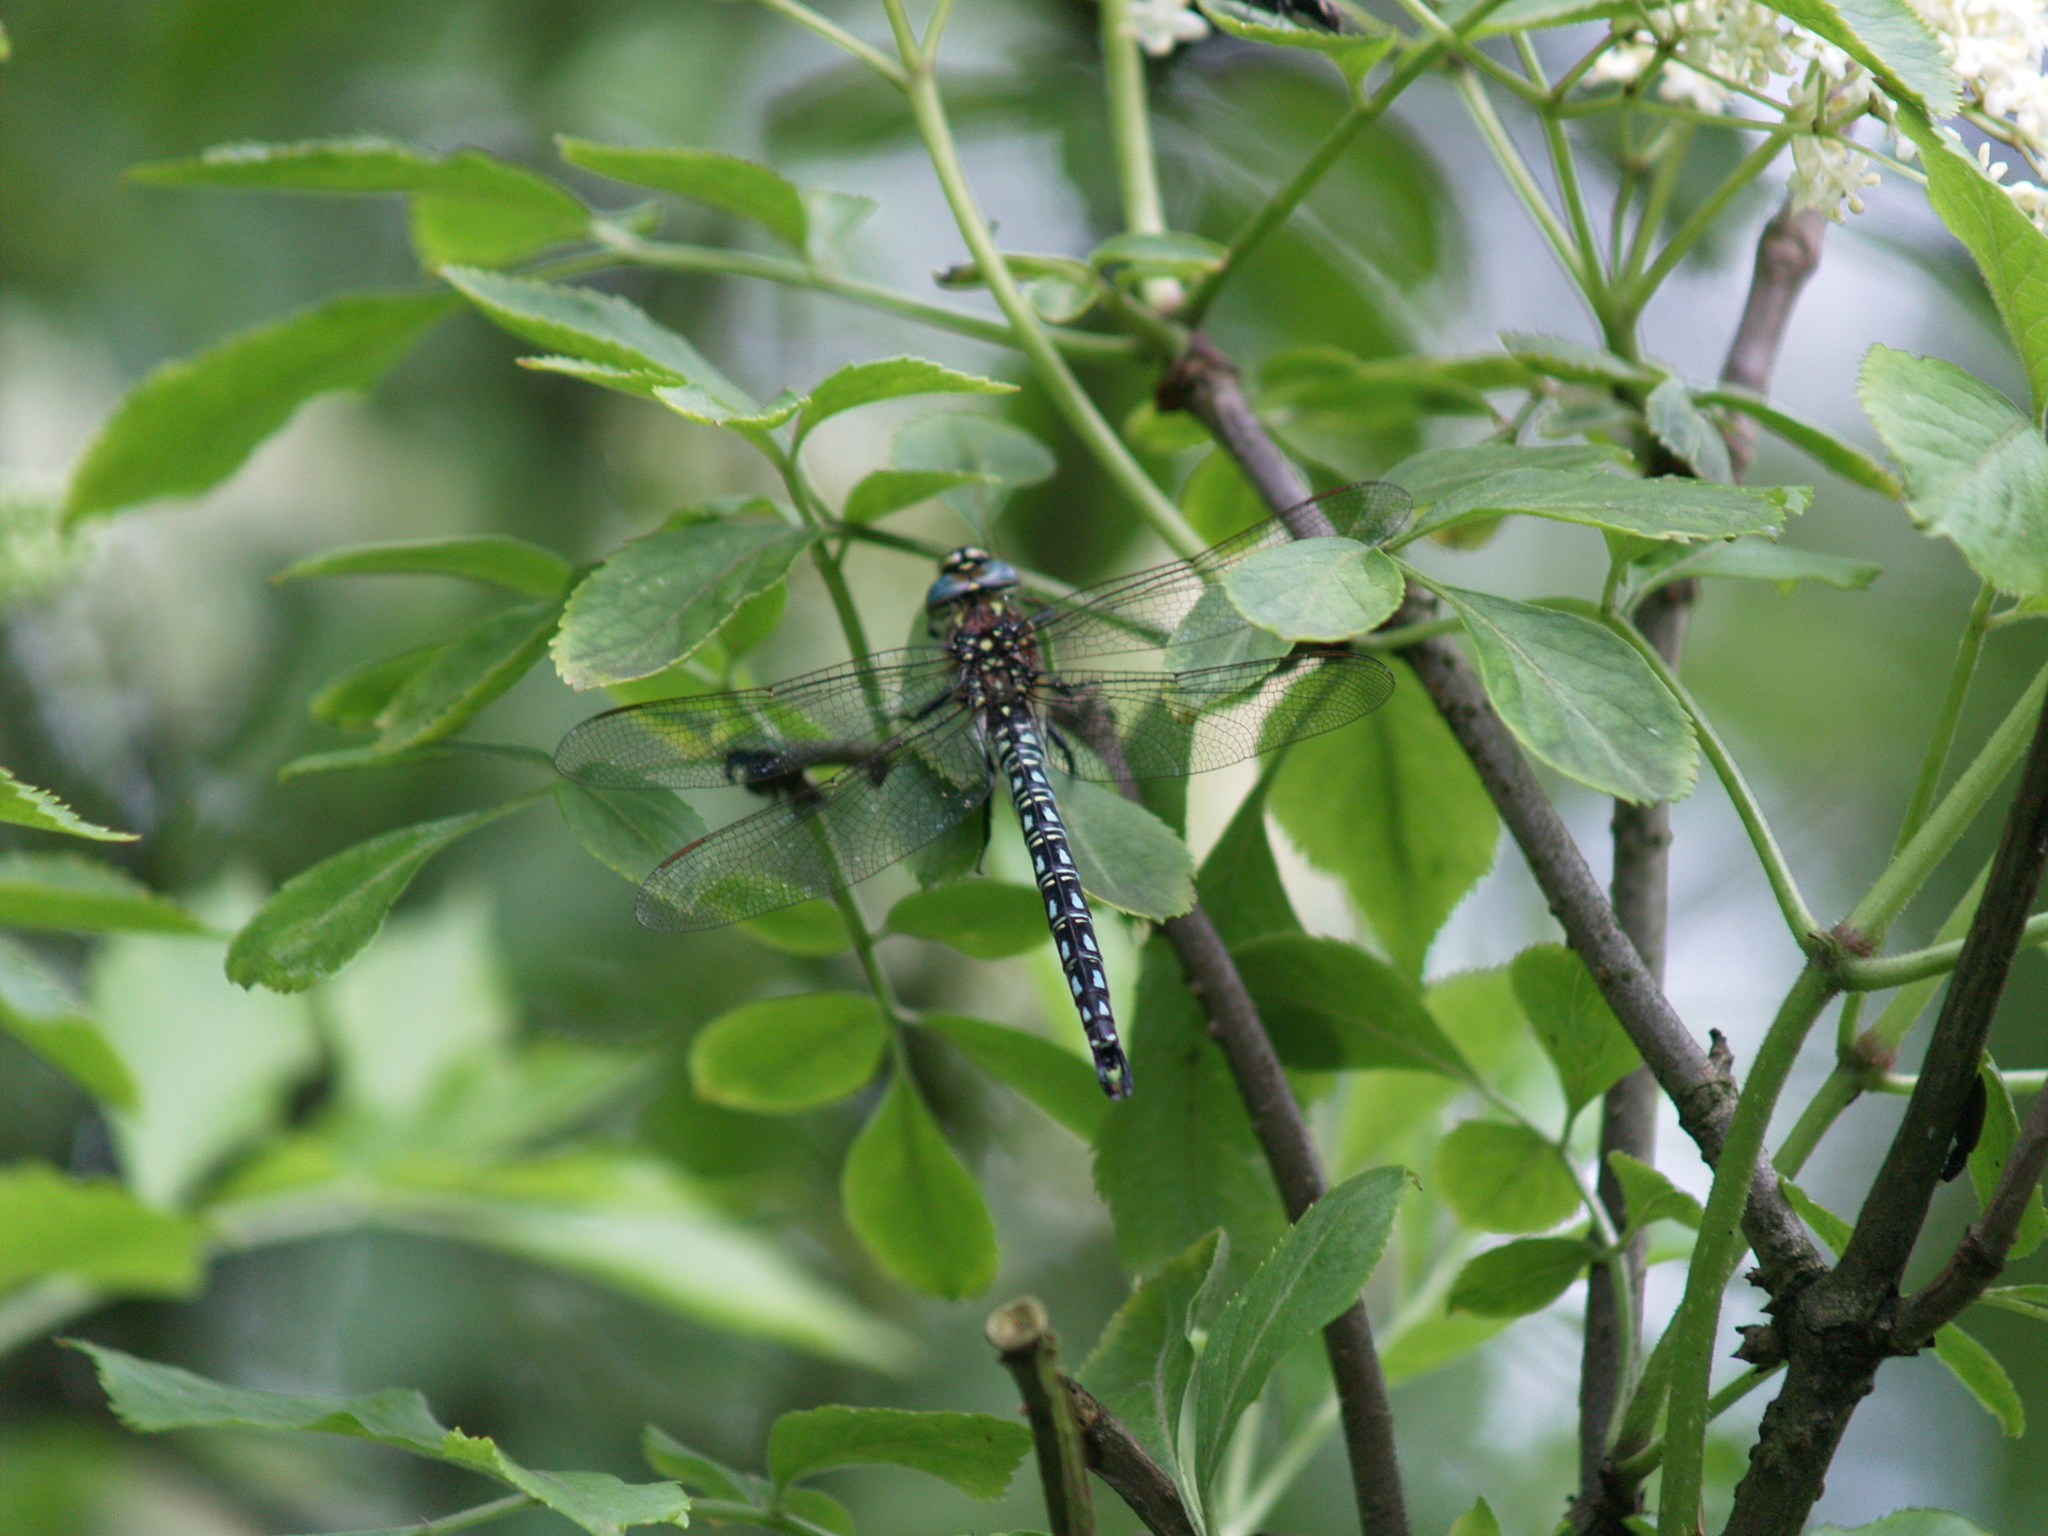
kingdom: Animalia
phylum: Arthropoda
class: Insecta
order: Odonata
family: Aeshnidae
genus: Brachytron
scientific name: Brachytron pratense
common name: Hairy hawker
